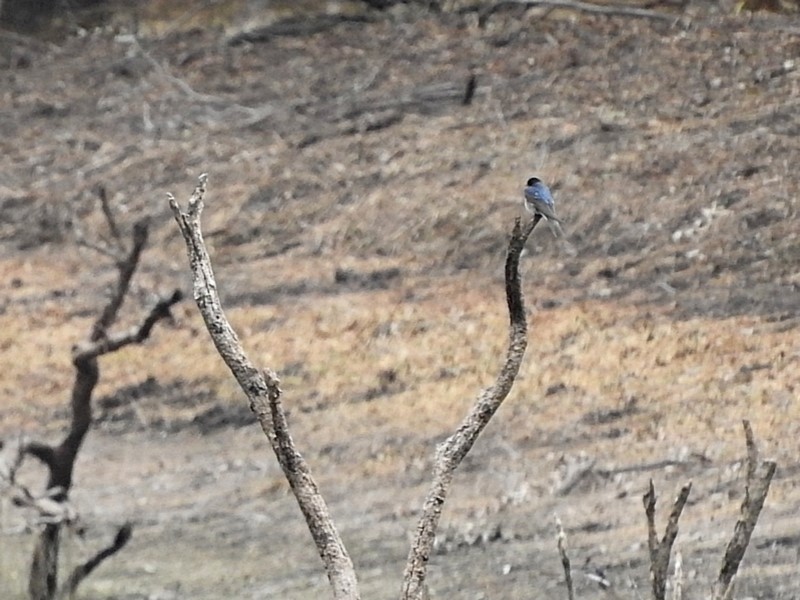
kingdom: Animalia
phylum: Chordata
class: Aves
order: Passeriformes
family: Hirundinidae
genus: Hirundo
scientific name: Hirundo neoxena
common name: Welcome swallow
